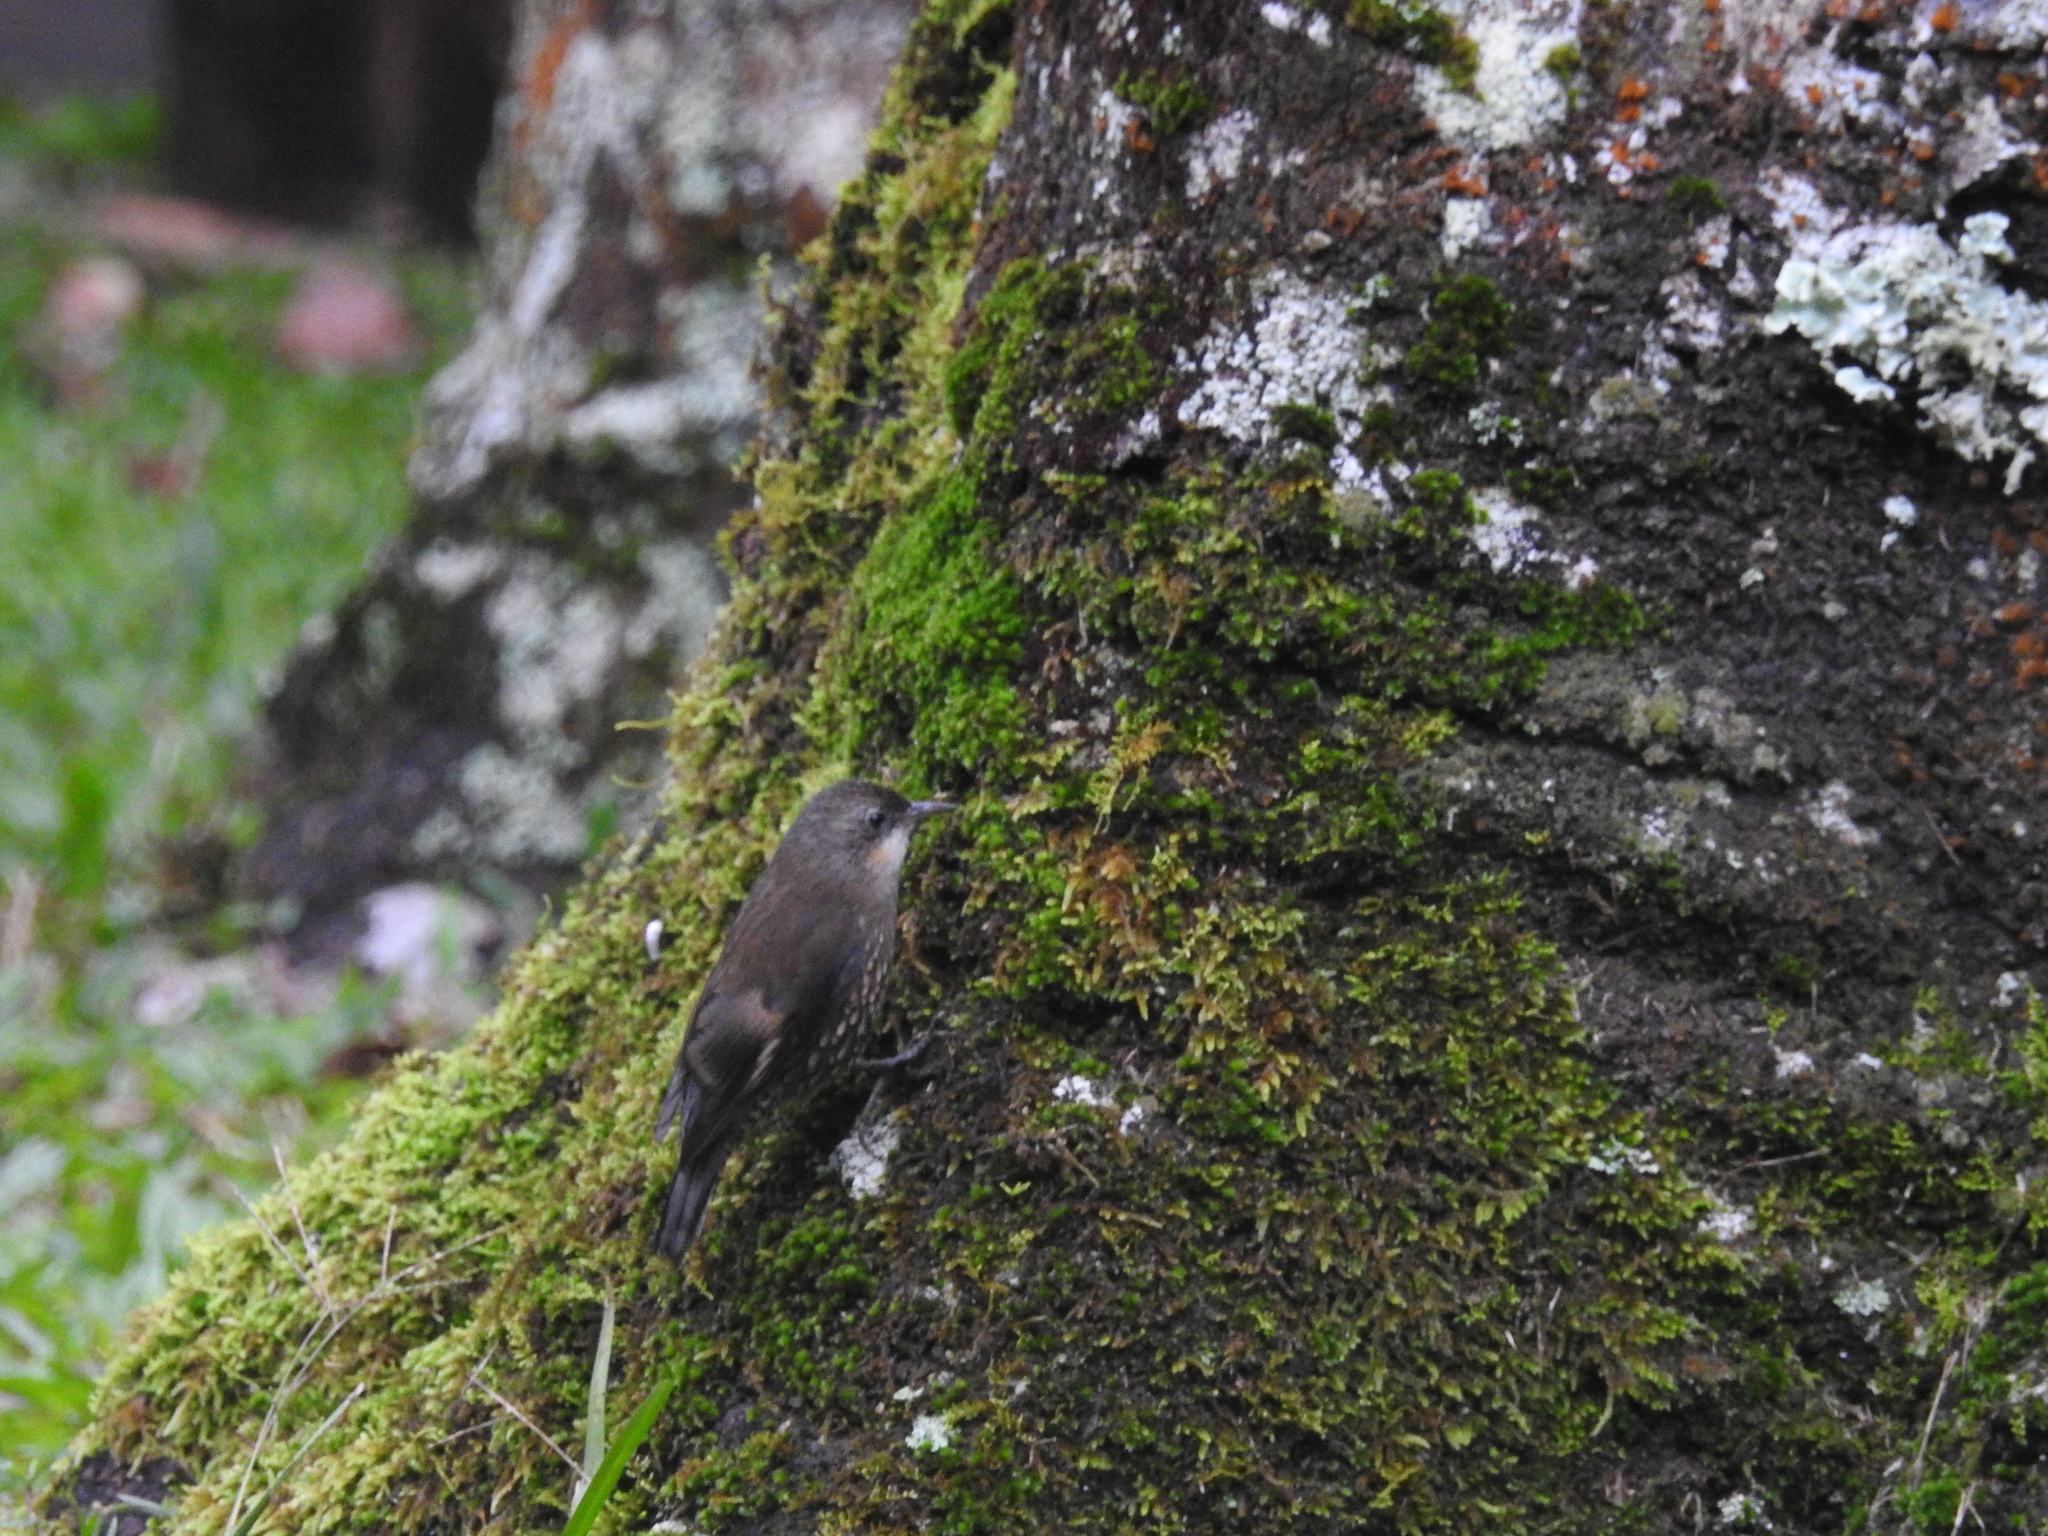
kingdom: Animalia
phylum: Chordata
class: Aves
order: Passeriformes
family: Climacteridae
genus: Cormobates
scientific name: Cormobates leucophaea
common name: White-throated treecreeper
